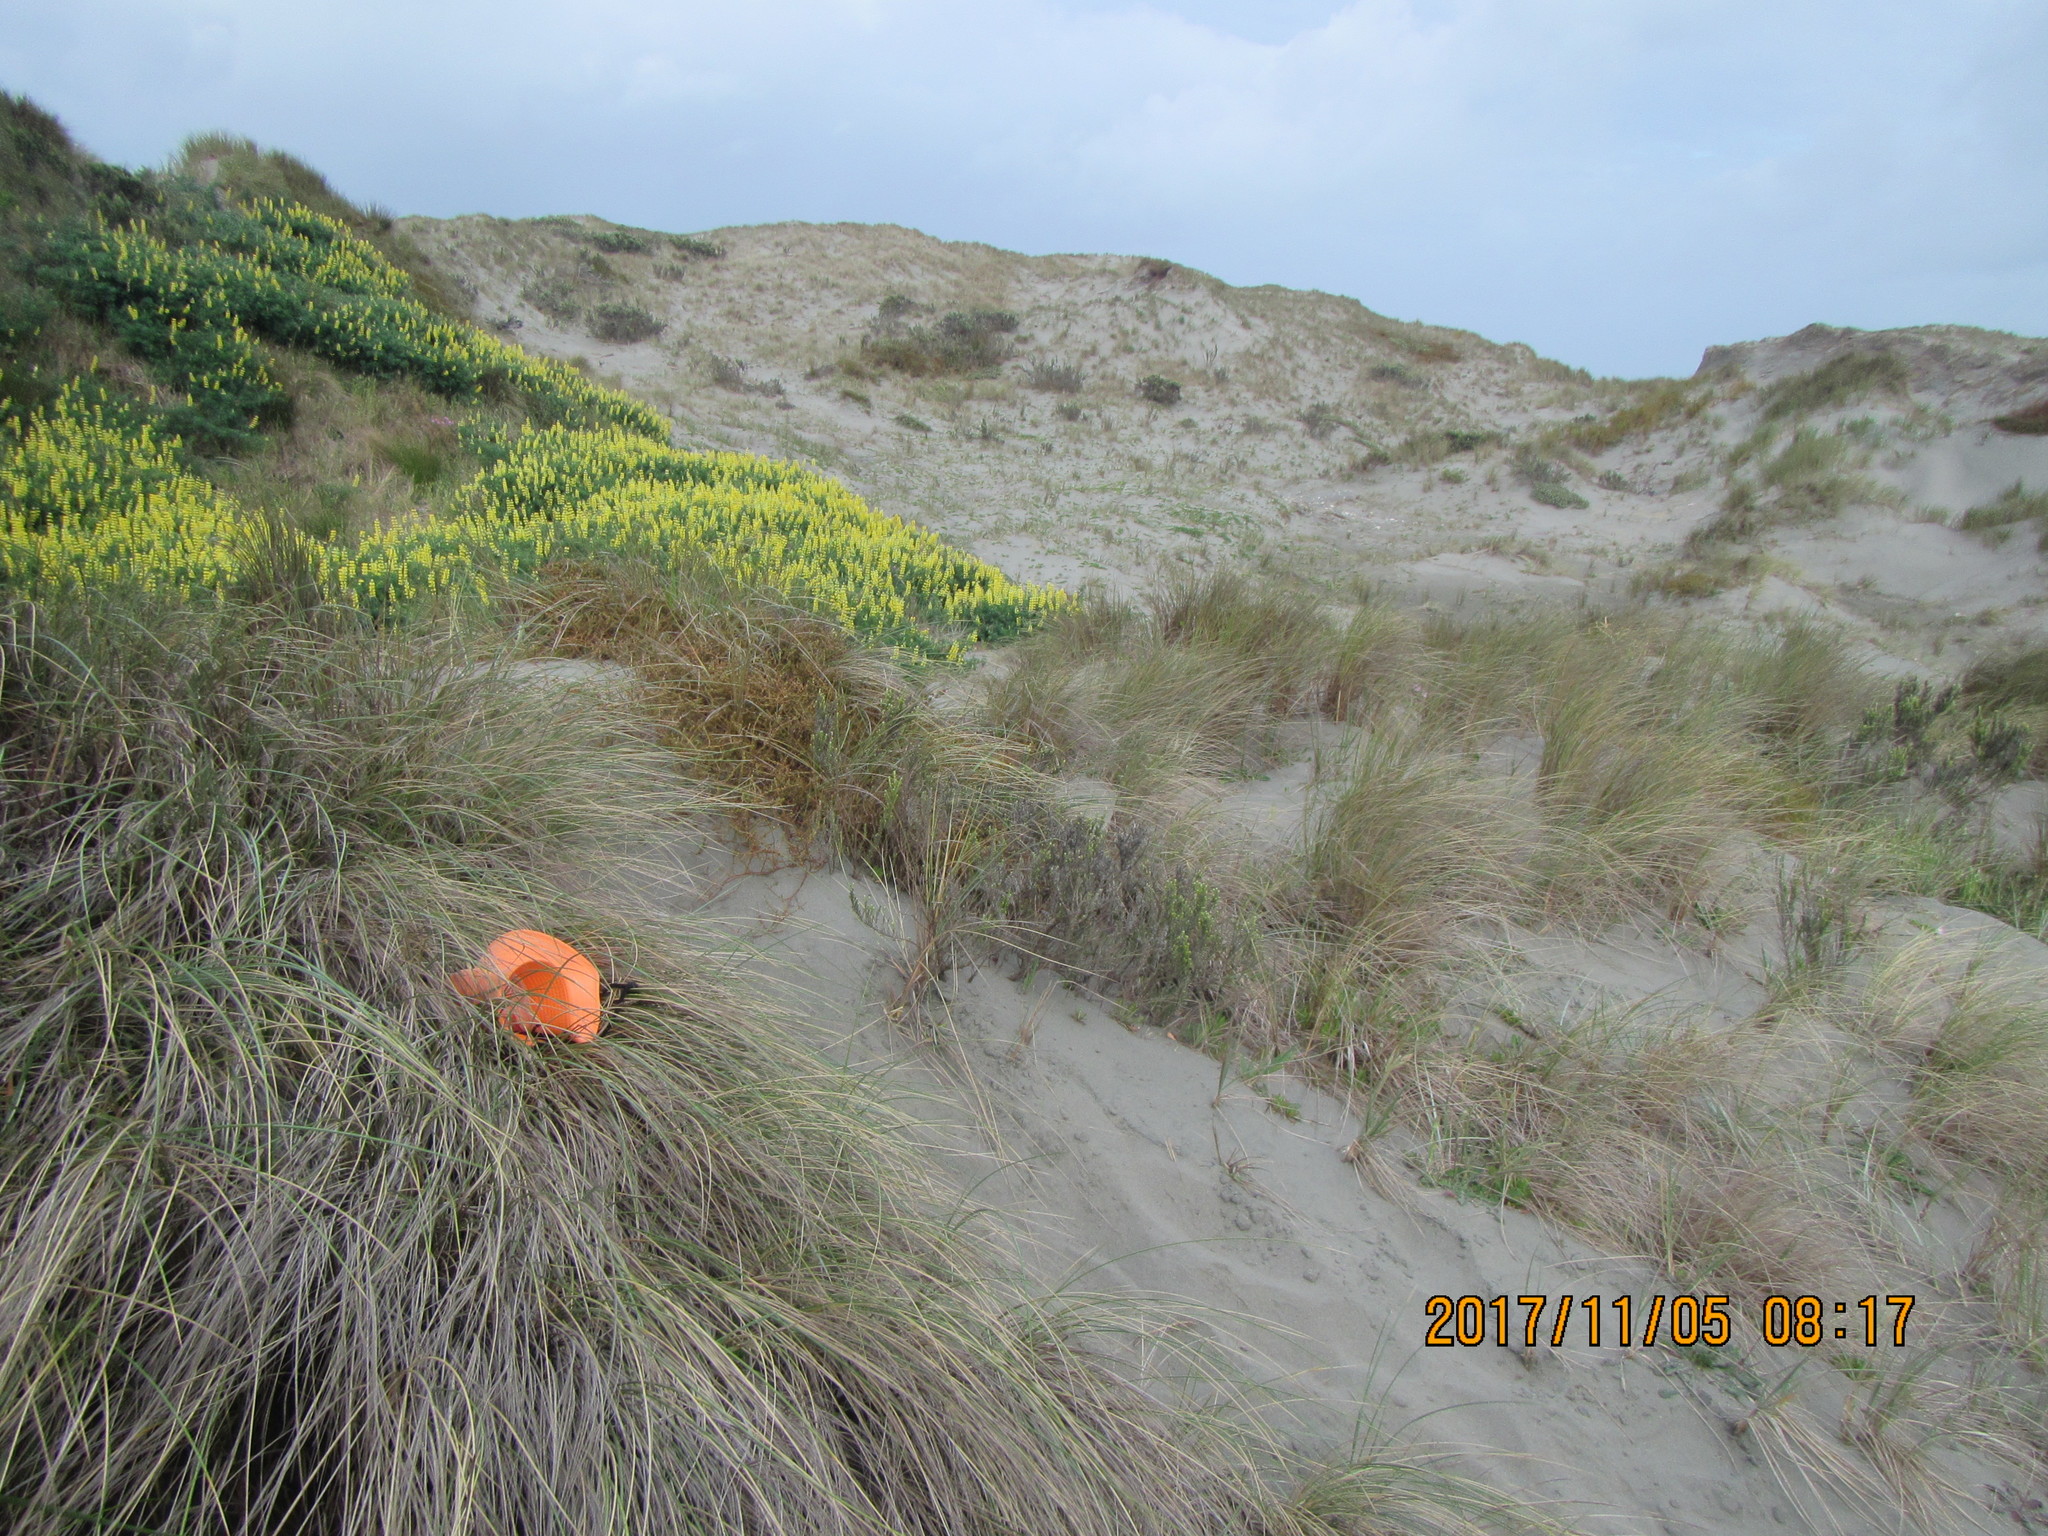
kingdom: Animalia
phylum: Arthropoda
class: Insecta
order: Hymenoptera
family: Eumenidae
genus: Polistes
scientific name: Polistes chinensis
